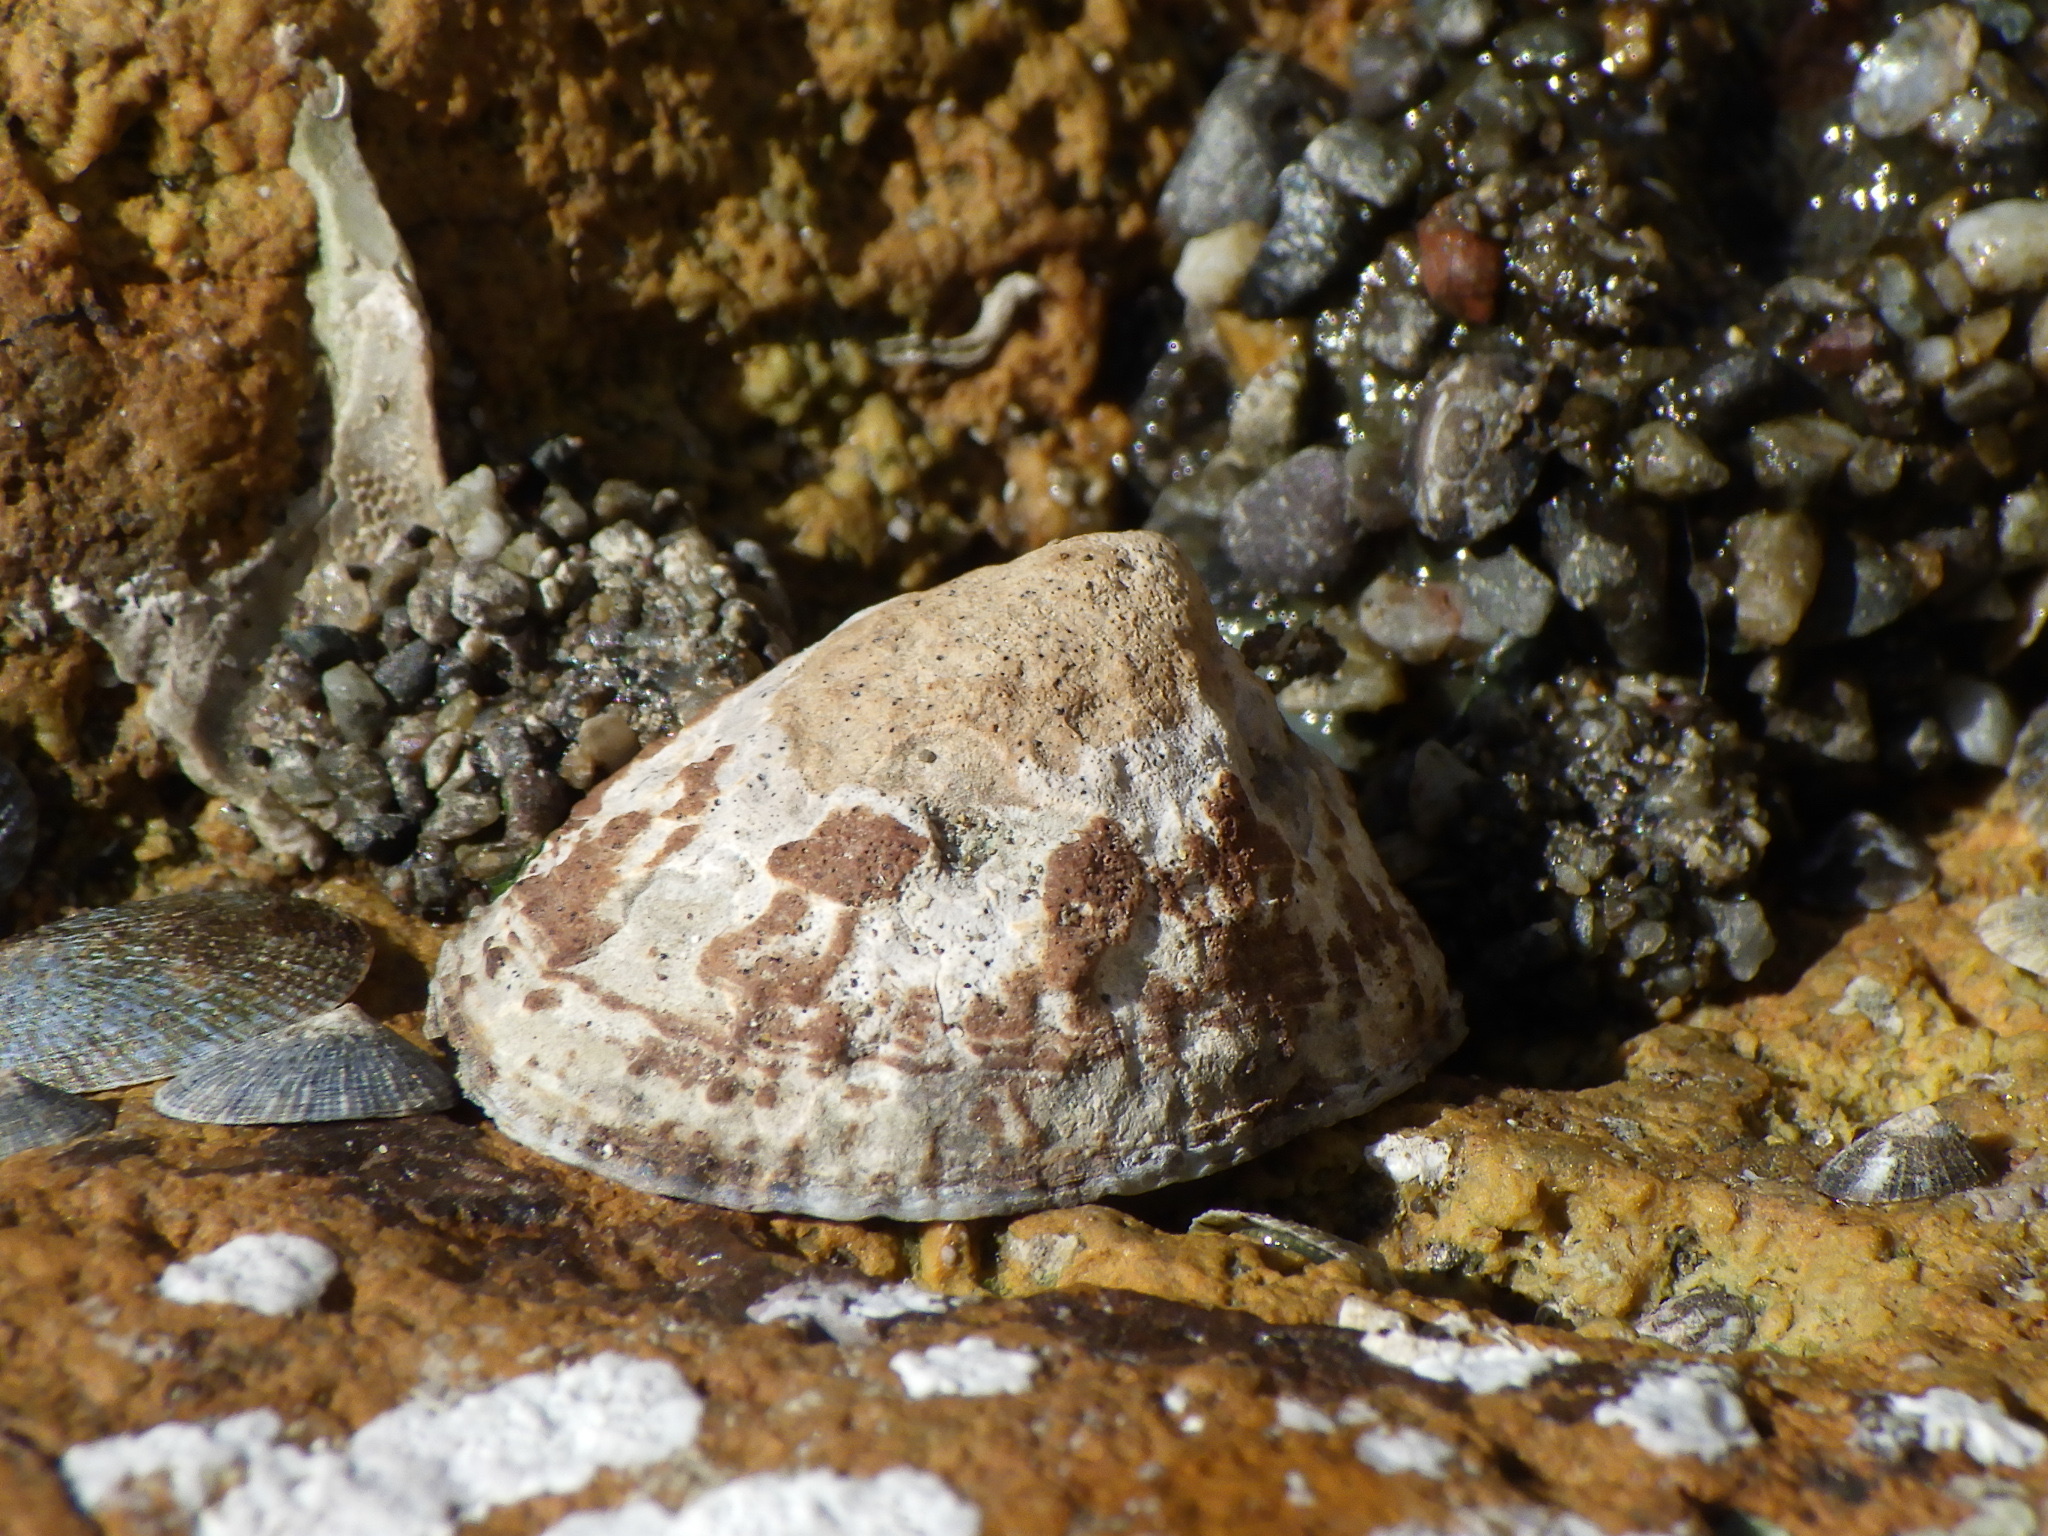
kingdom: Animalia
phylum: Mollusca
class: Gastropoda
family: Nacellidae
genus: Cellana
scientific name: Cellana grata
